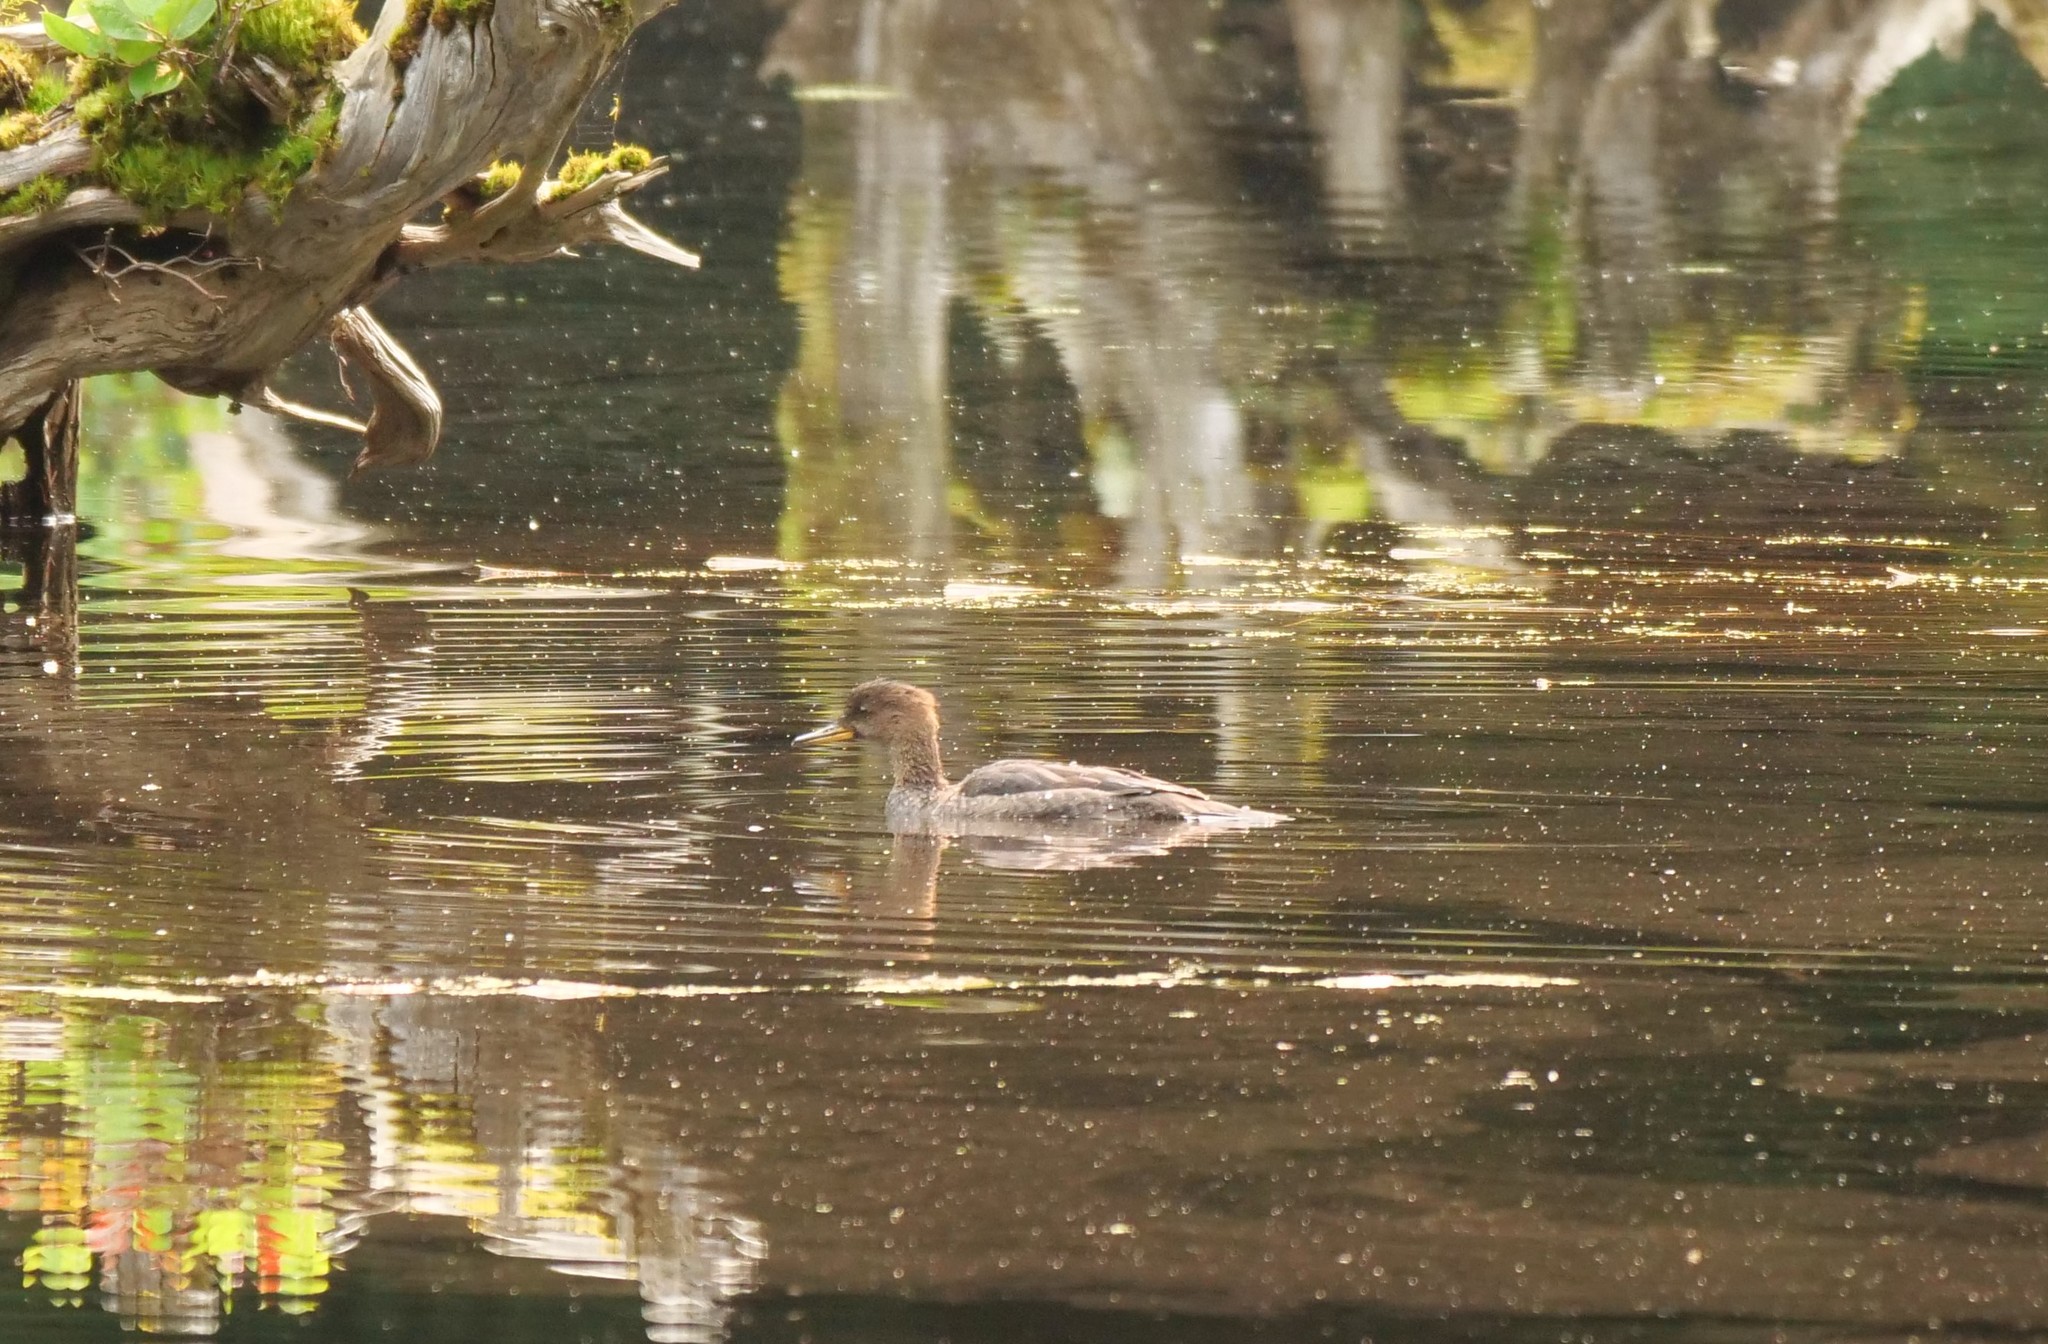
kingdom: Animalia
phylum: Chordata
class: Aves
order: Anseriformes
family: Anatidae
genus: Lophodytes
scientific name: Lophodytes cucullatus
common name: Hooded merganser
